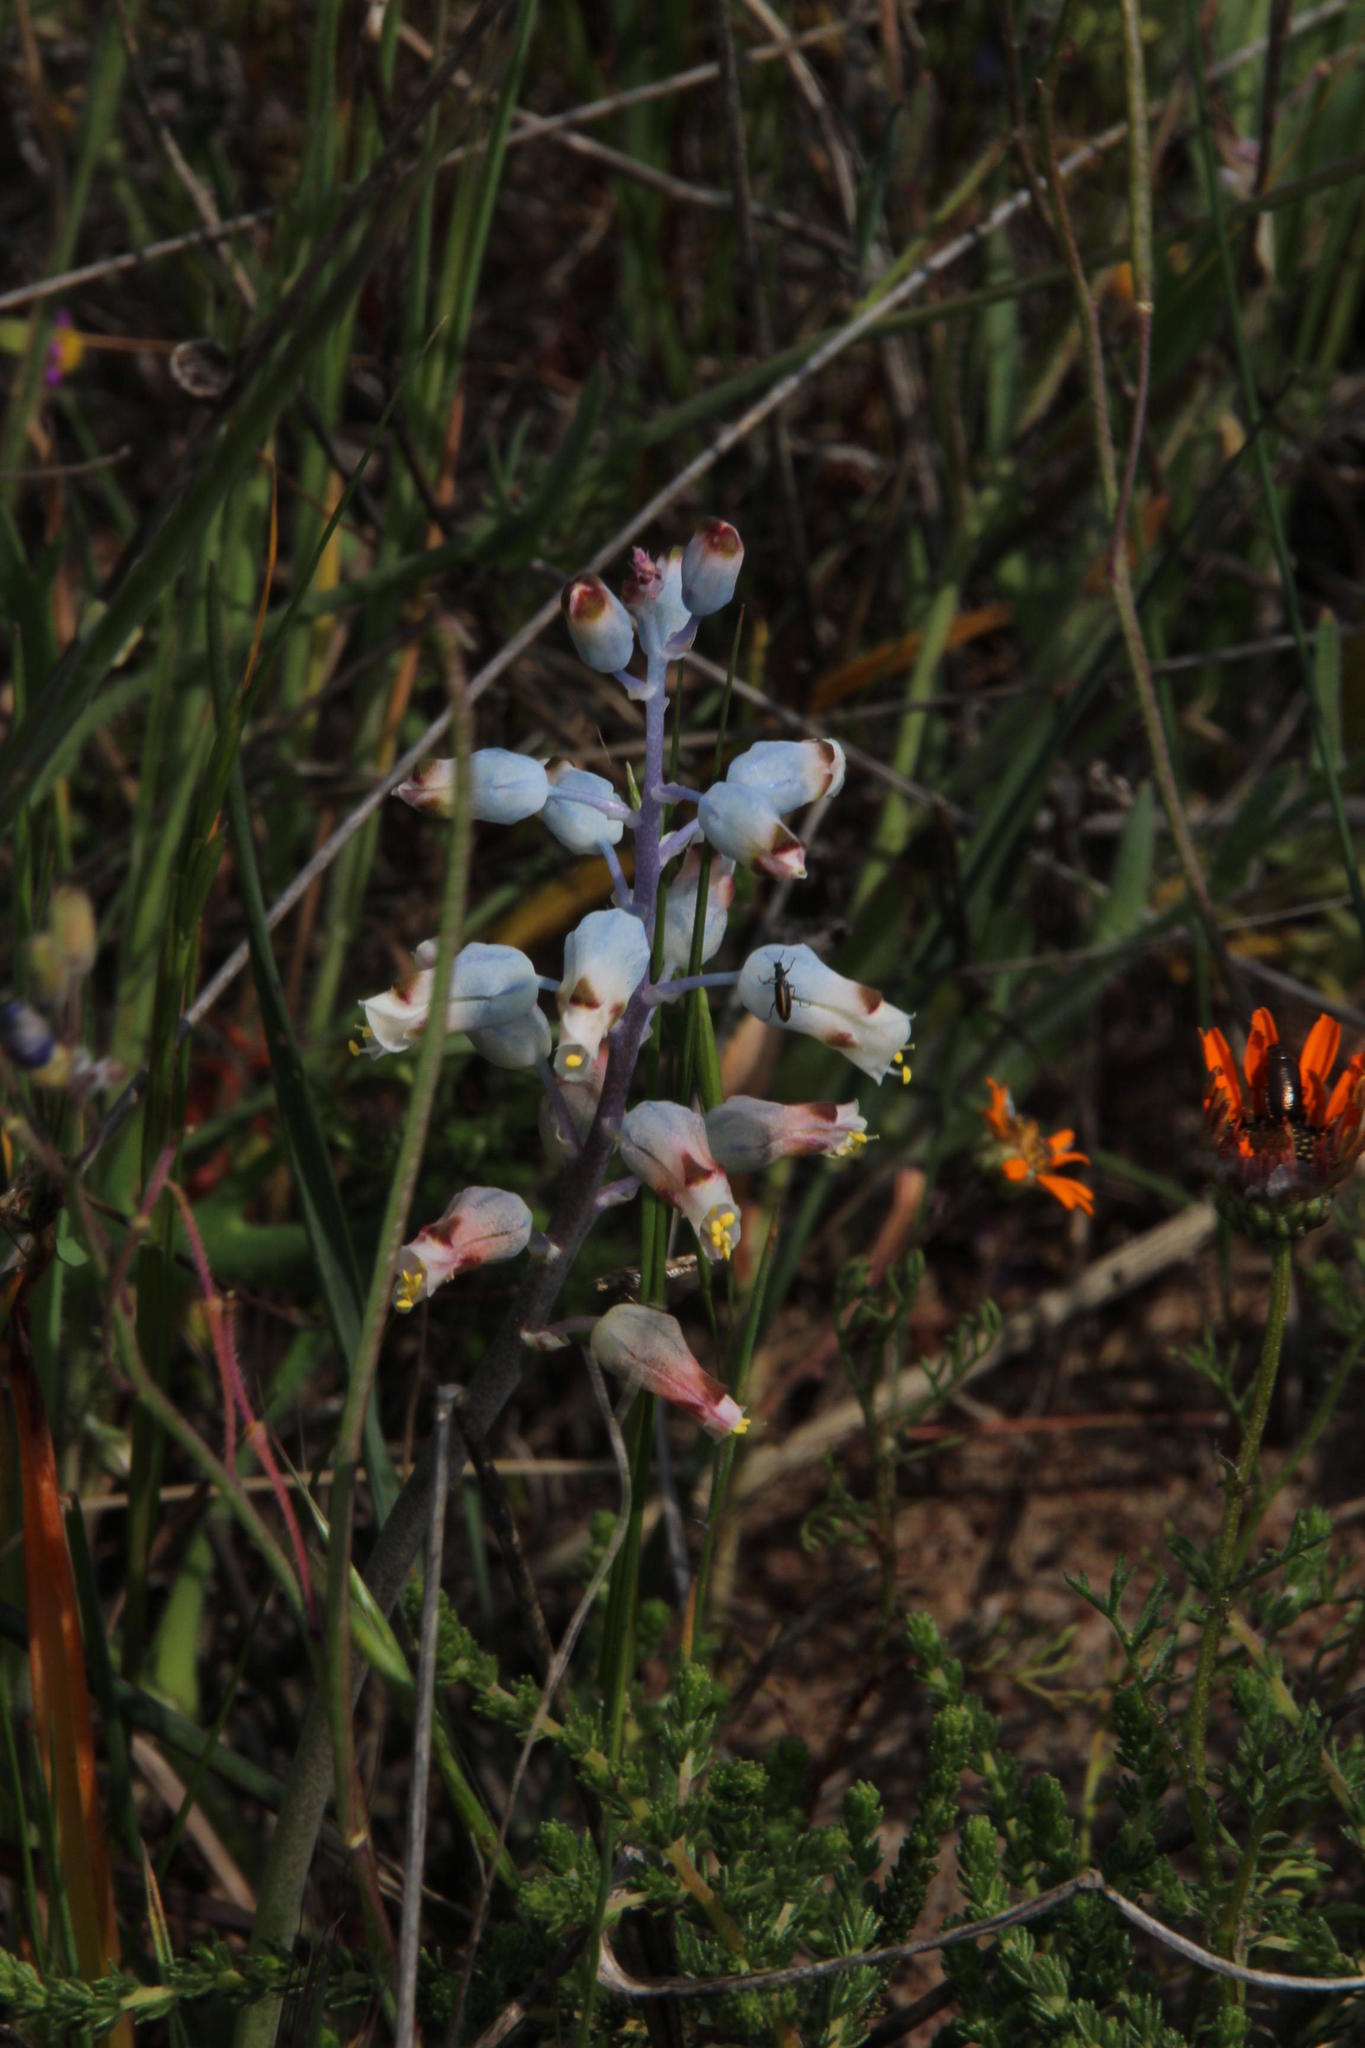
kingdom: Plantae
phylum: Tracheophyta
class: Liliopsida
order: Asparagales
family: Asparagaceae
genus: Lachenalia
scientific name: Lachenalia unifolia
